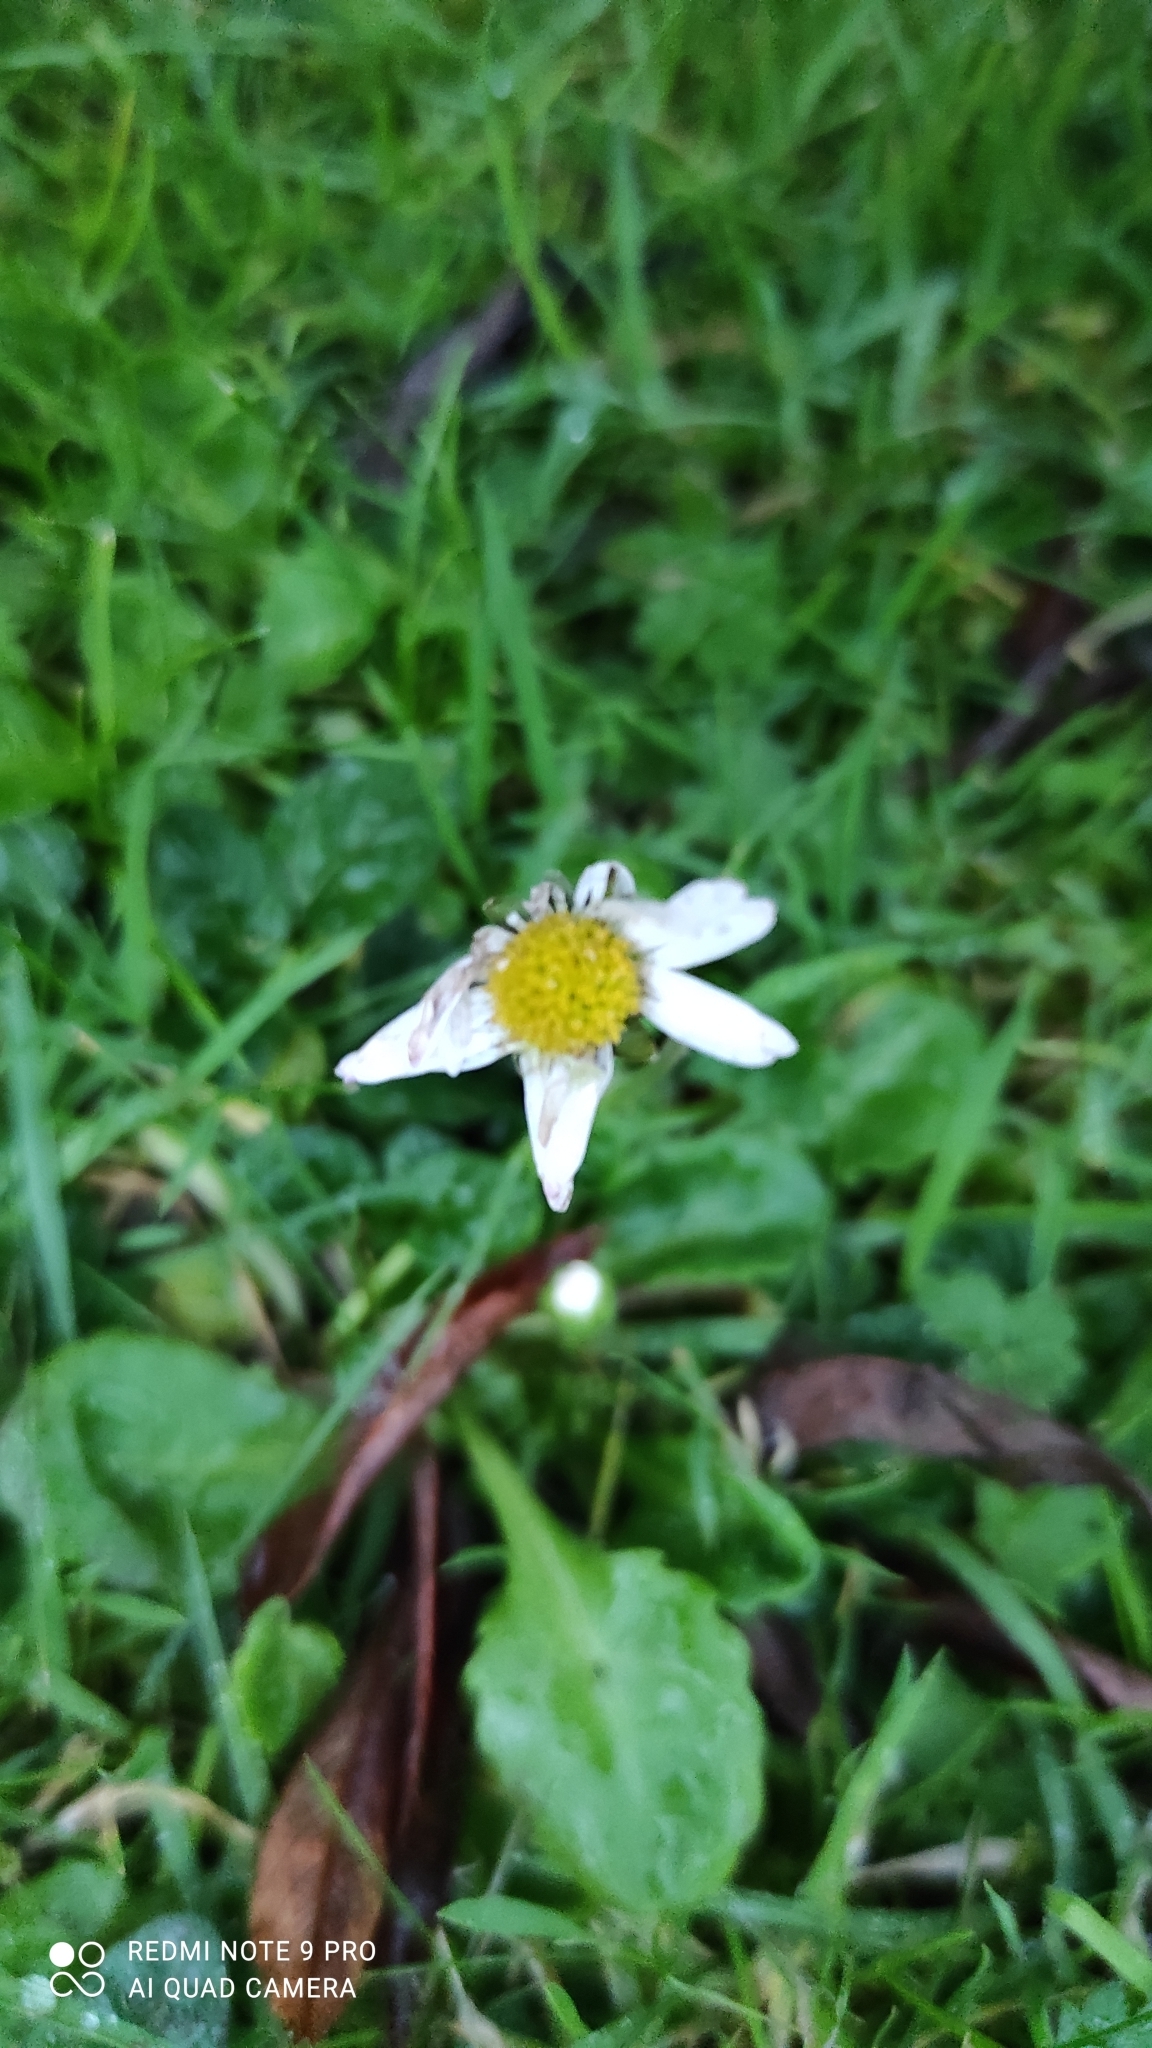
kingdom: Plantae
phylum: Tracheophyta
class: Magnoliopsida
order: Asterales
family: Asteraceae
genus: Bellis
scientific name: Bellis perennis
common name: Lawndaisy
